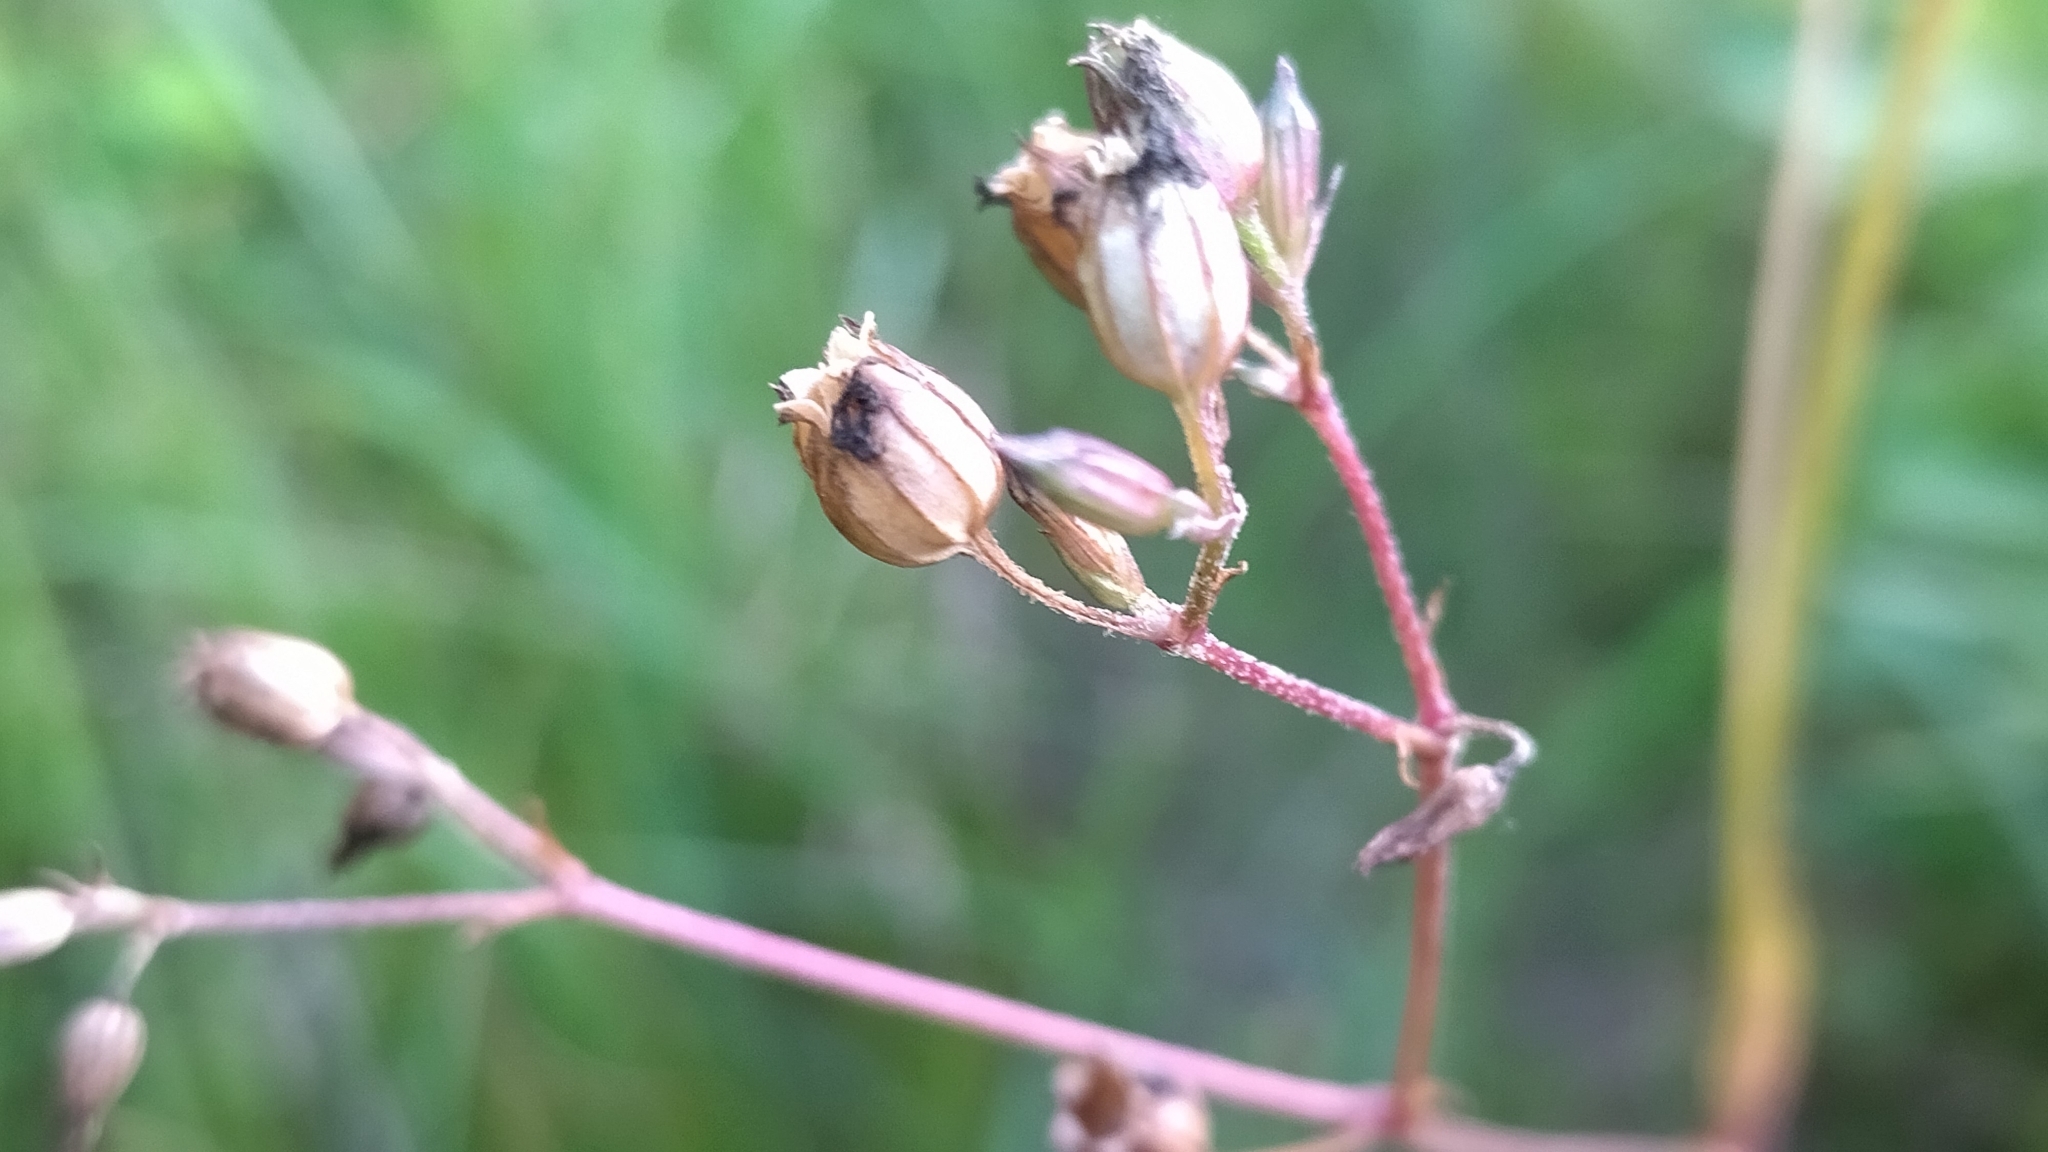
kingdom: Plantae
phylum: Tracheophyta
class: Magnoliopsida
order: Caryophyllales
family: Caryophyllaceae
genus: Silene
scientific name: Silene flos-cuculi
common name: Ragged-robin
